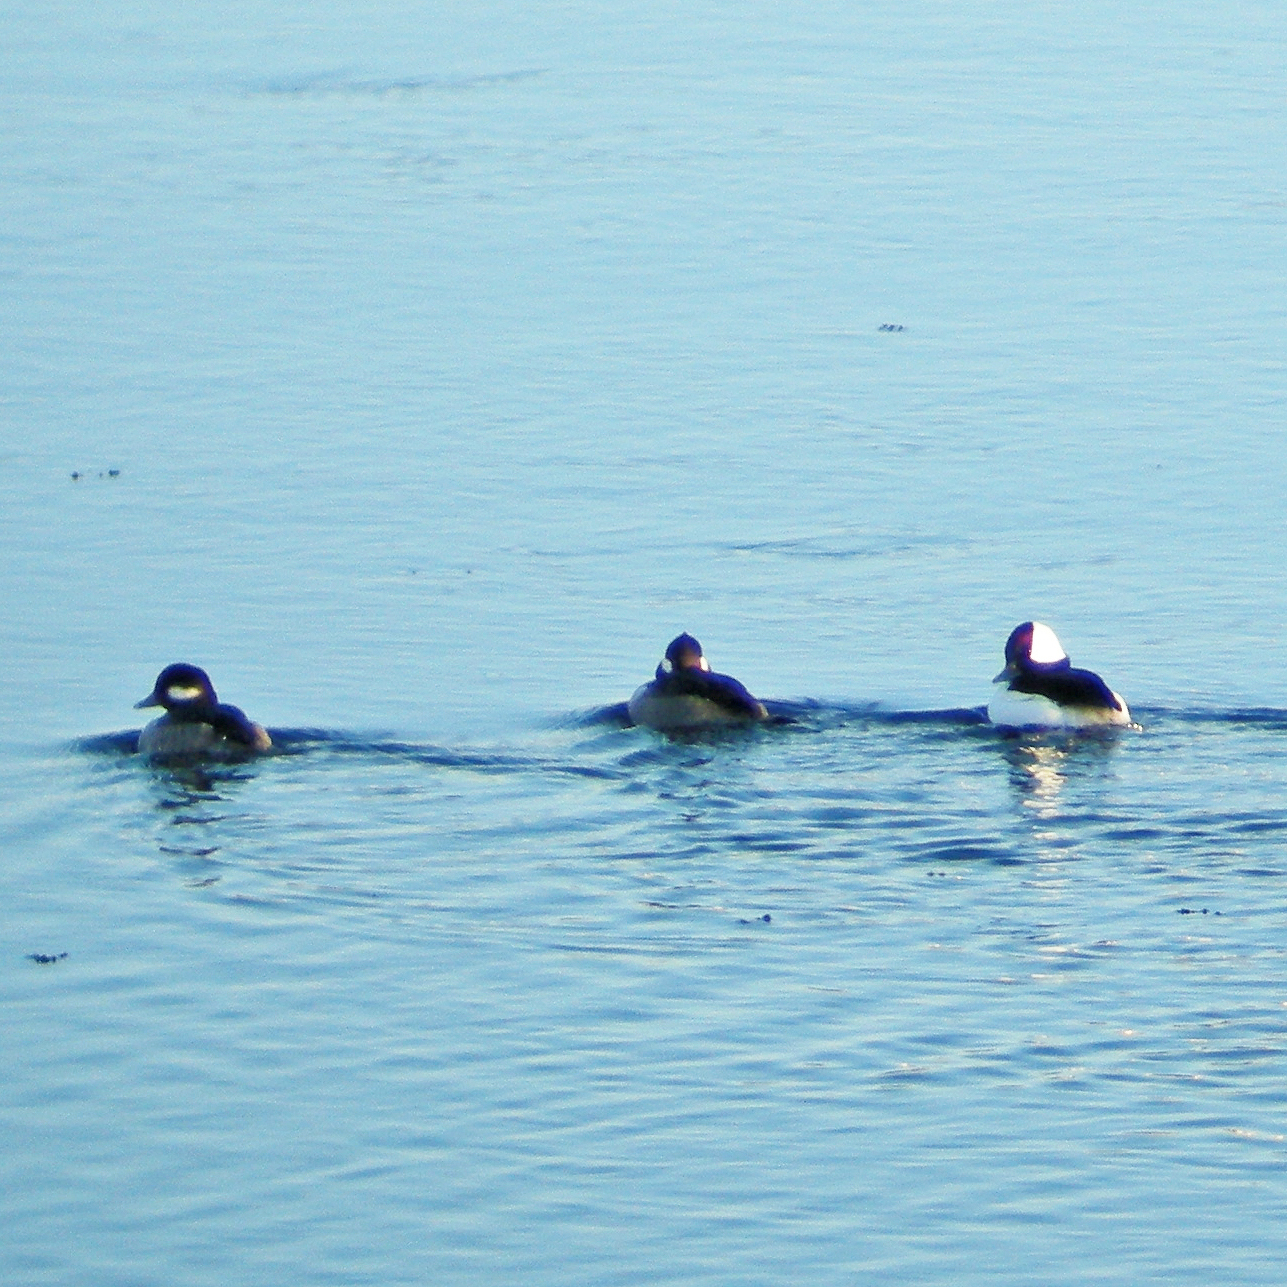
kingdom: Animalia
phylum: Chordata
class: Aves
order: Anseriformes
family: Anatidae
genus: Bucephala
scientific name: Bucephala albeola
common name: Bufflehead
